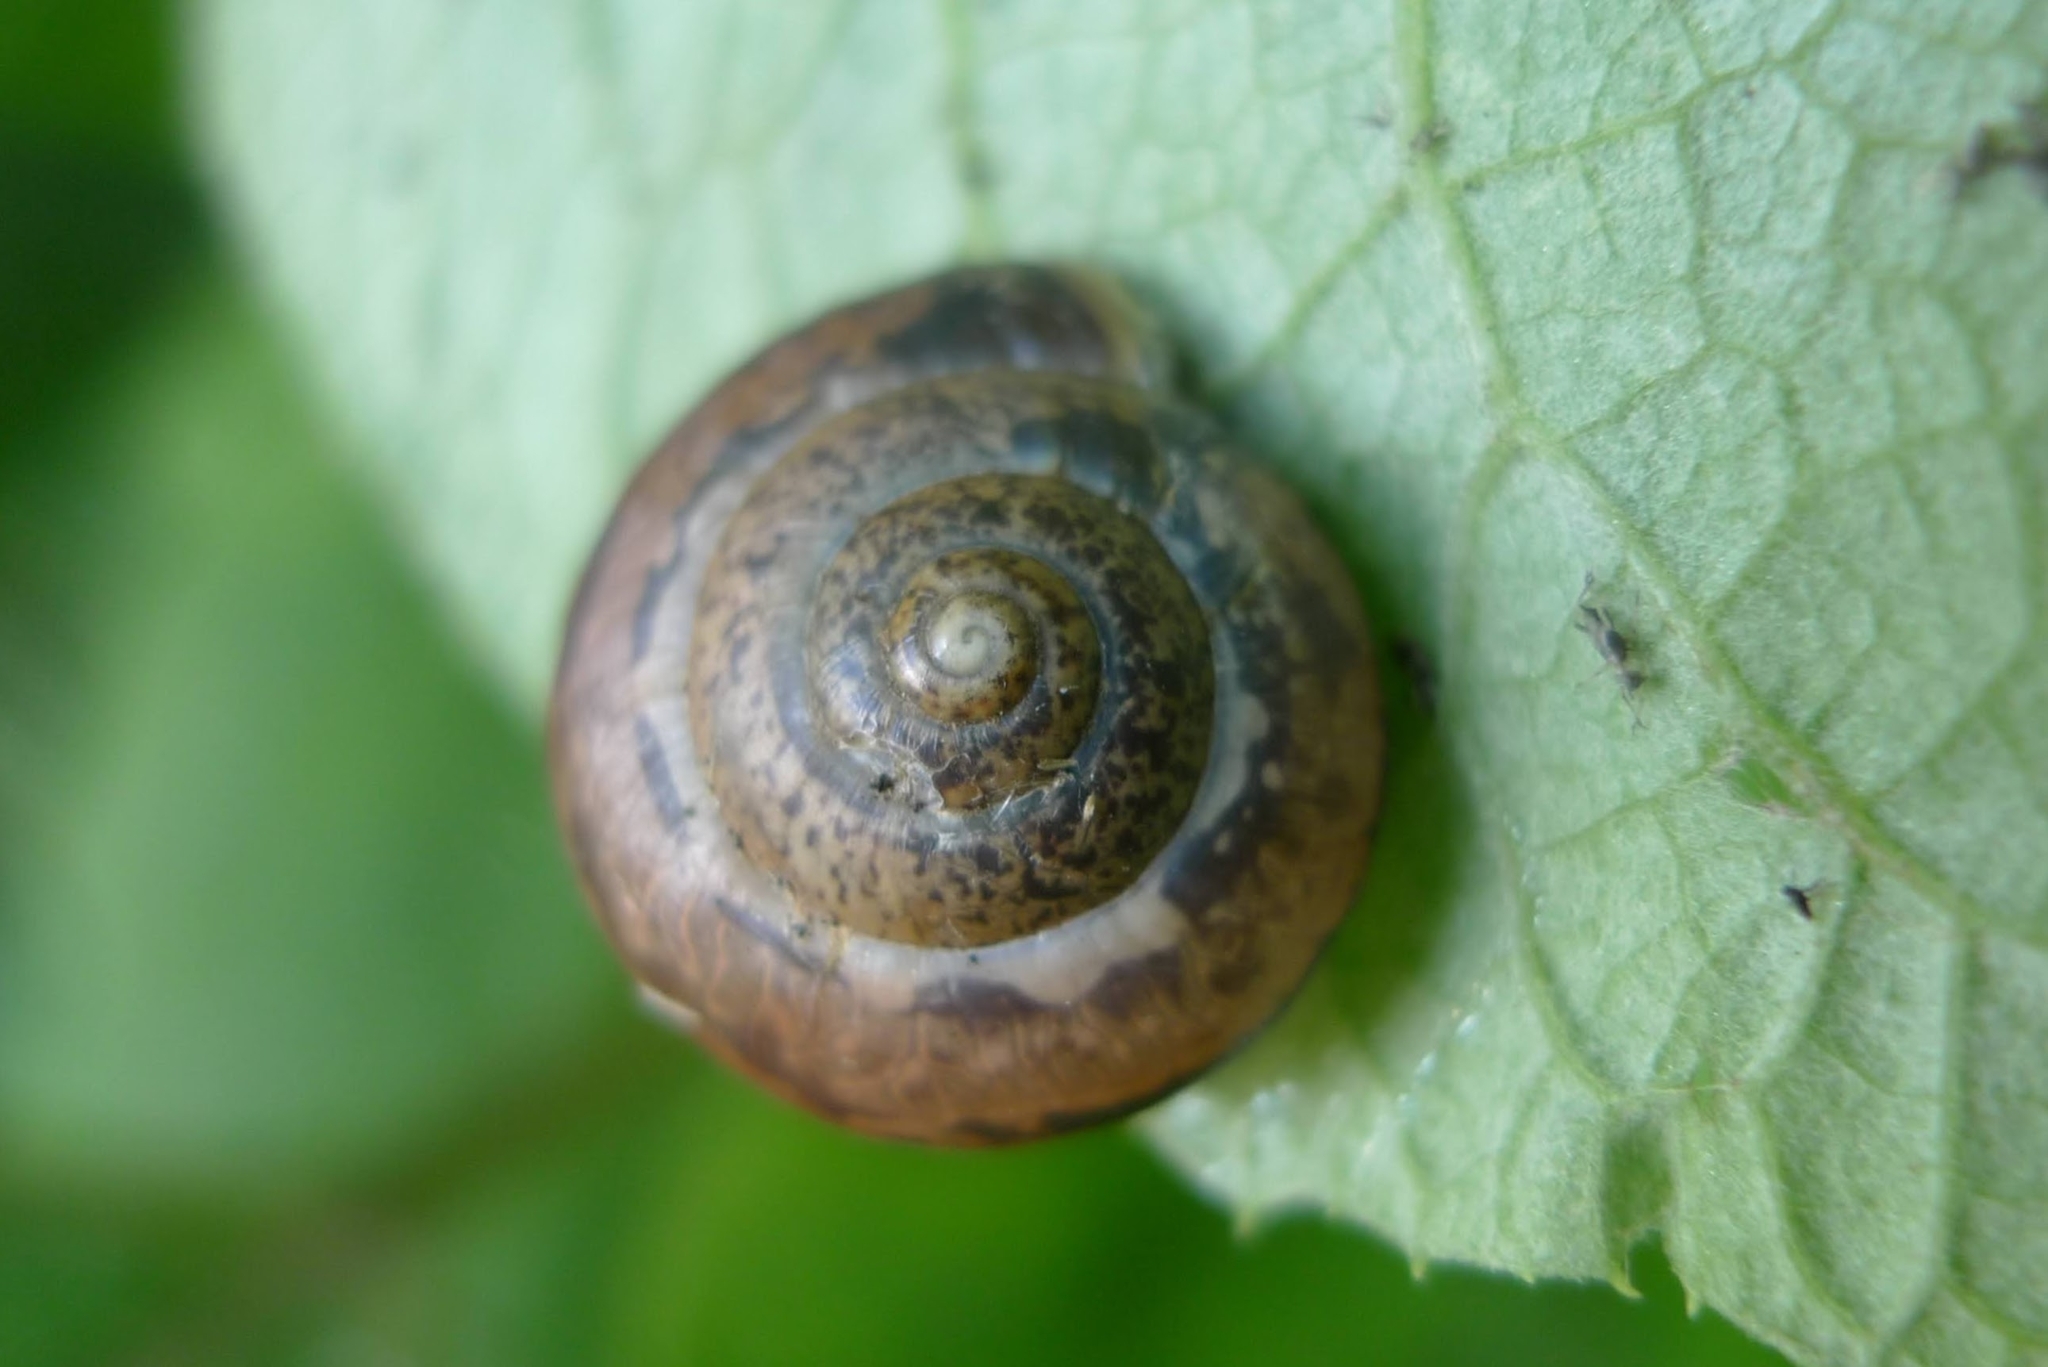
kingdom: Animalia
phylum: Mollusca
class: Gastropoda
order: Stylommatophora
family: Camaenidae
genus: Fruticicola
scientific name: Fruticicola fruticum
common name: Bush snail
